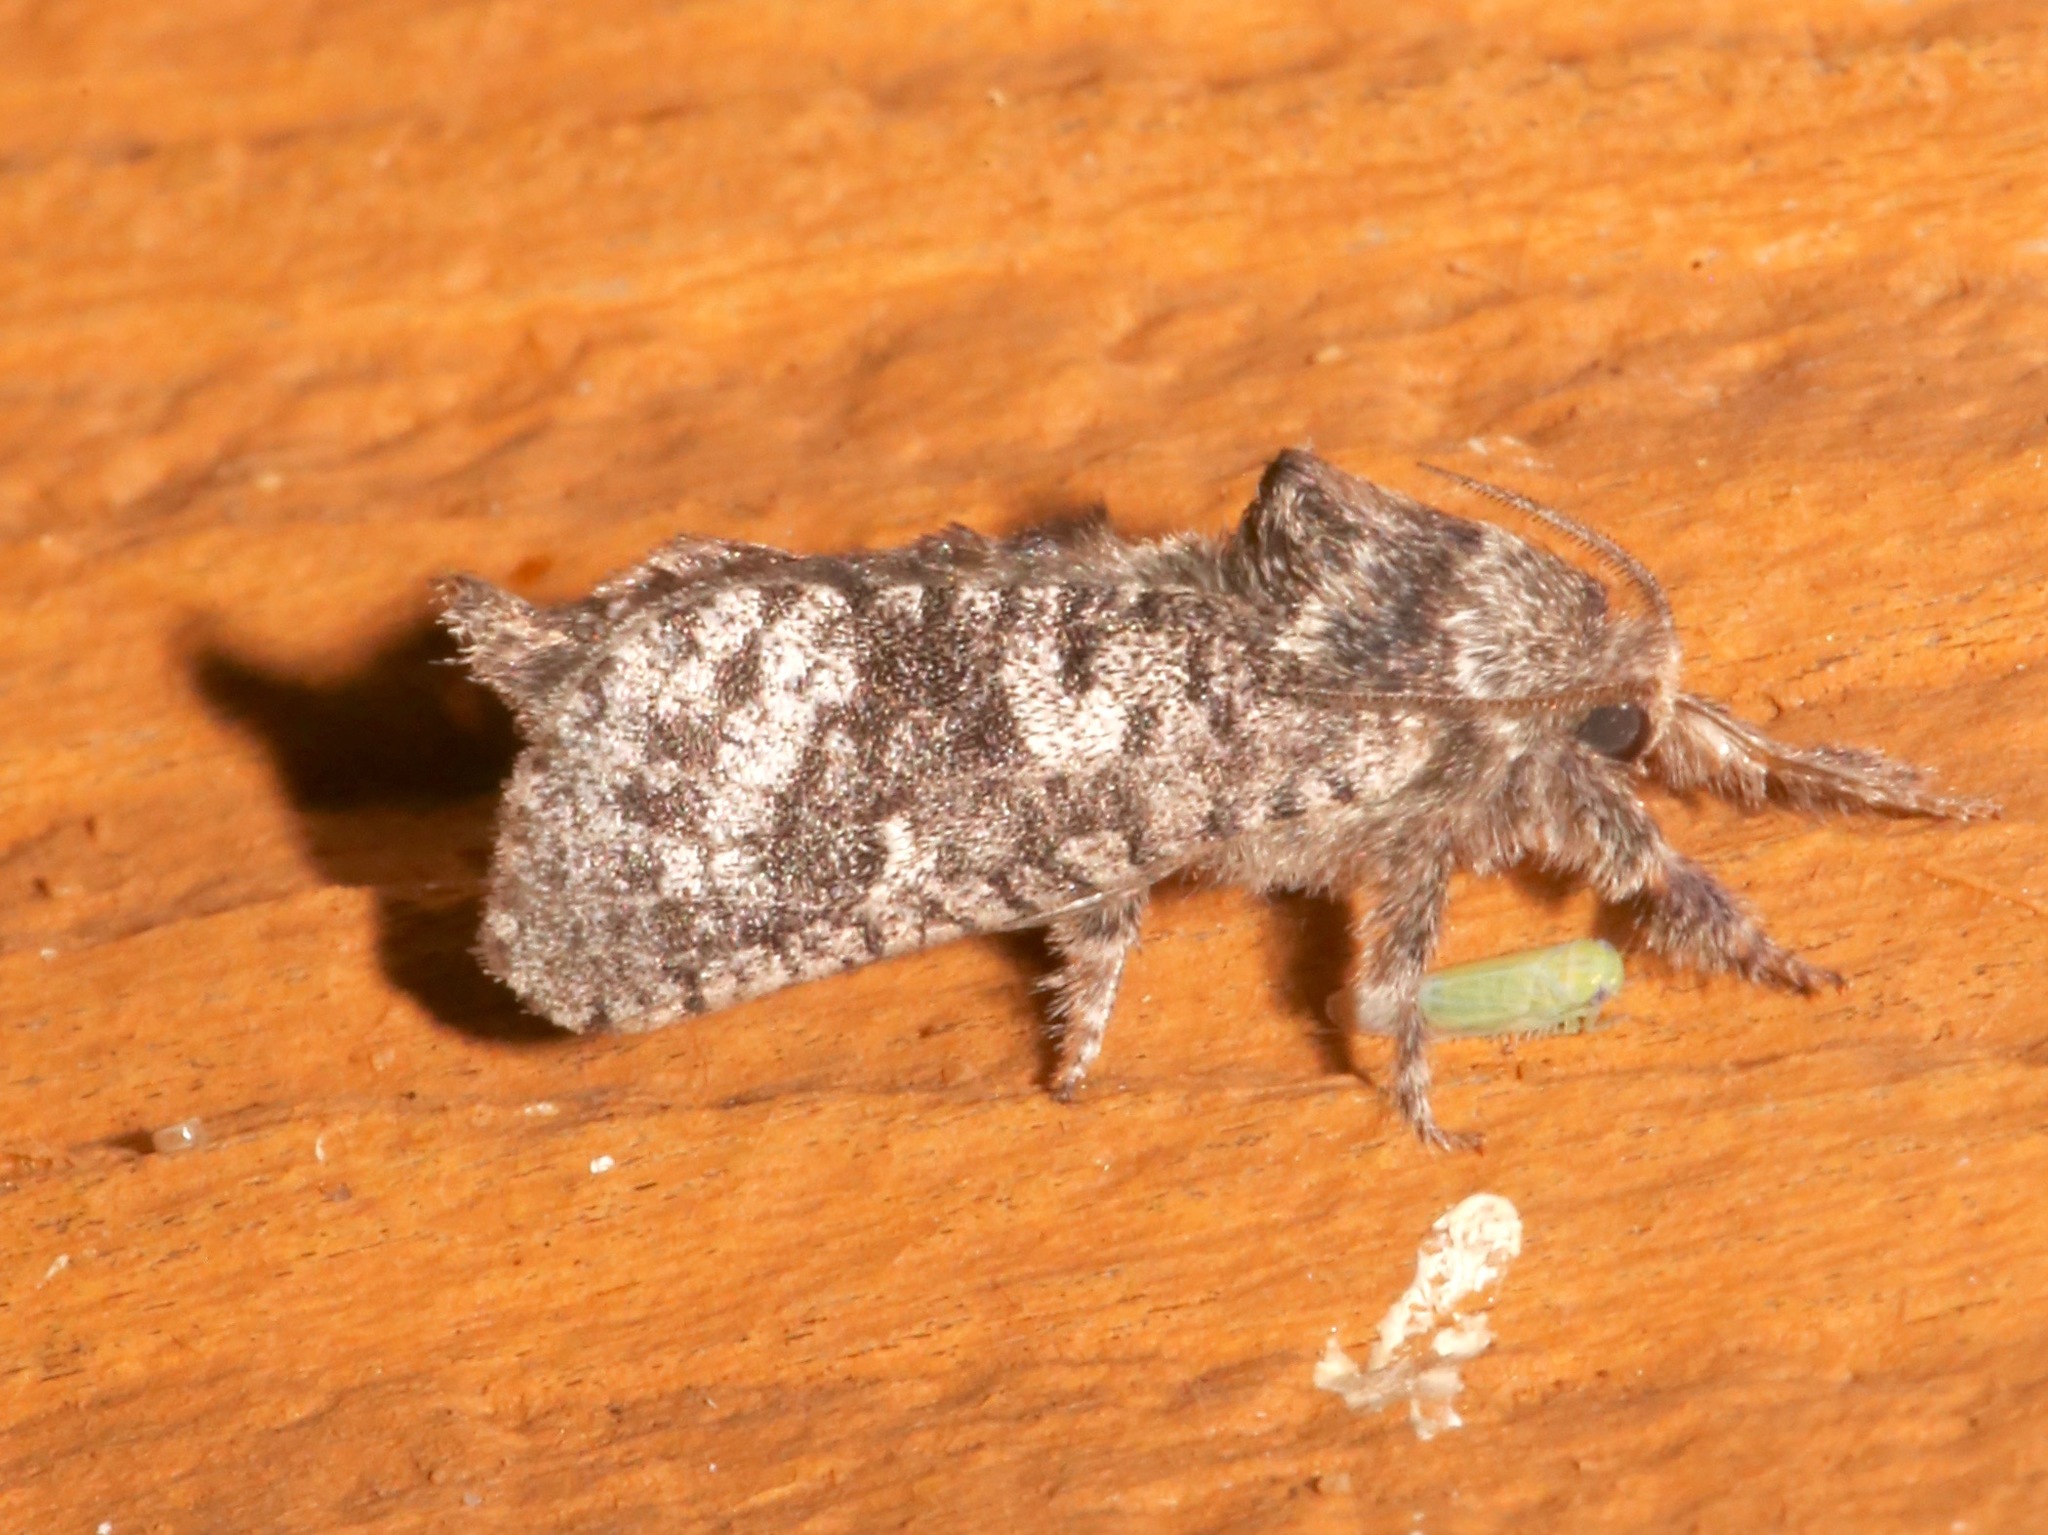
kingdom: Animalia
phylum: Arthropoda
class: Insecta
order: Lepidoptera
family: Cossidae
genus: Givira
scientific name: Givira francesca
